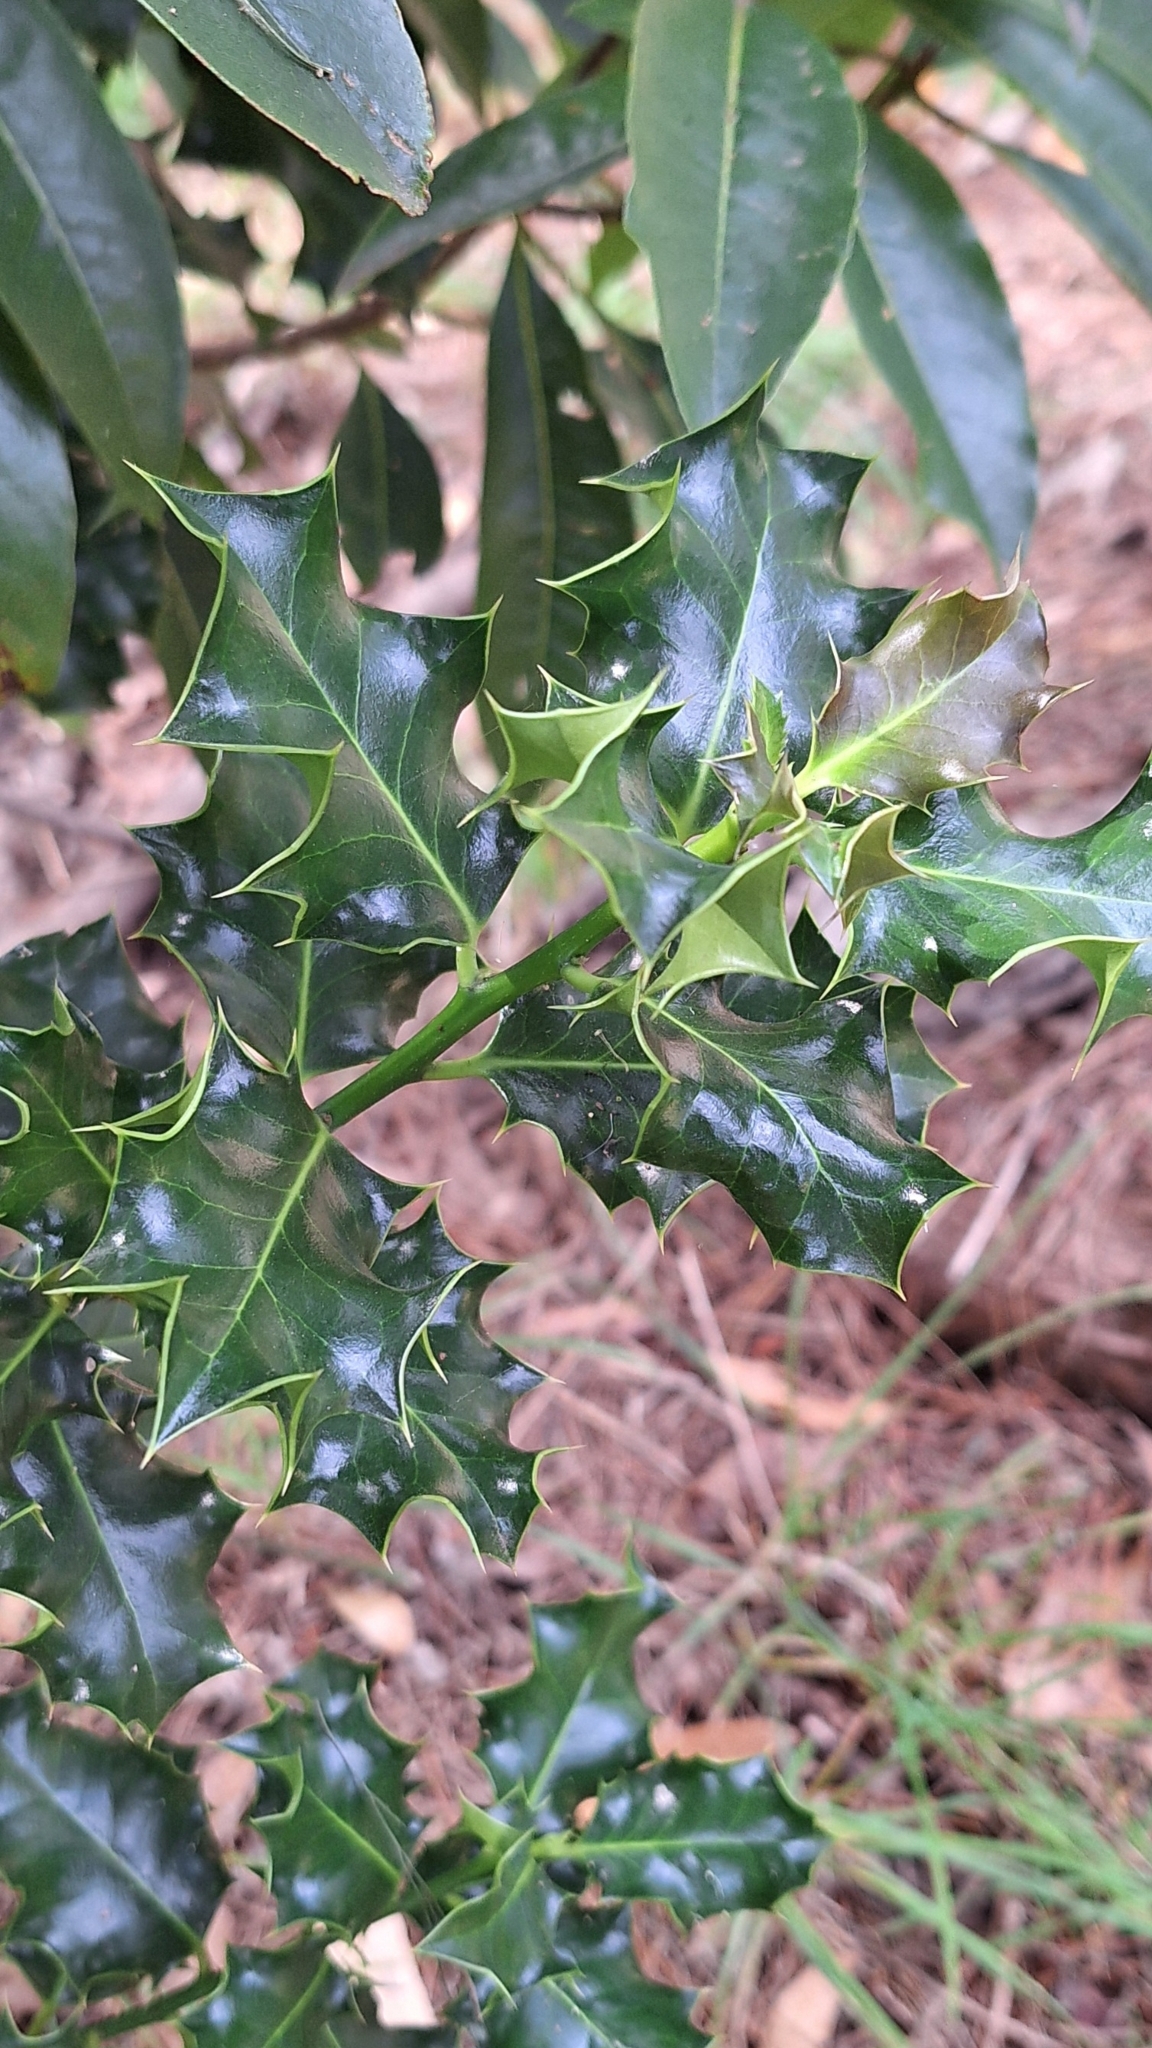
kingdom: Plantae
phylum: Tracheophyta
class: Magnoliopsida
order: Aquifoliales
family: Aquifoliaceae
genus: Ilex
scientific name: Ilex aquifolium
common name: English holly
